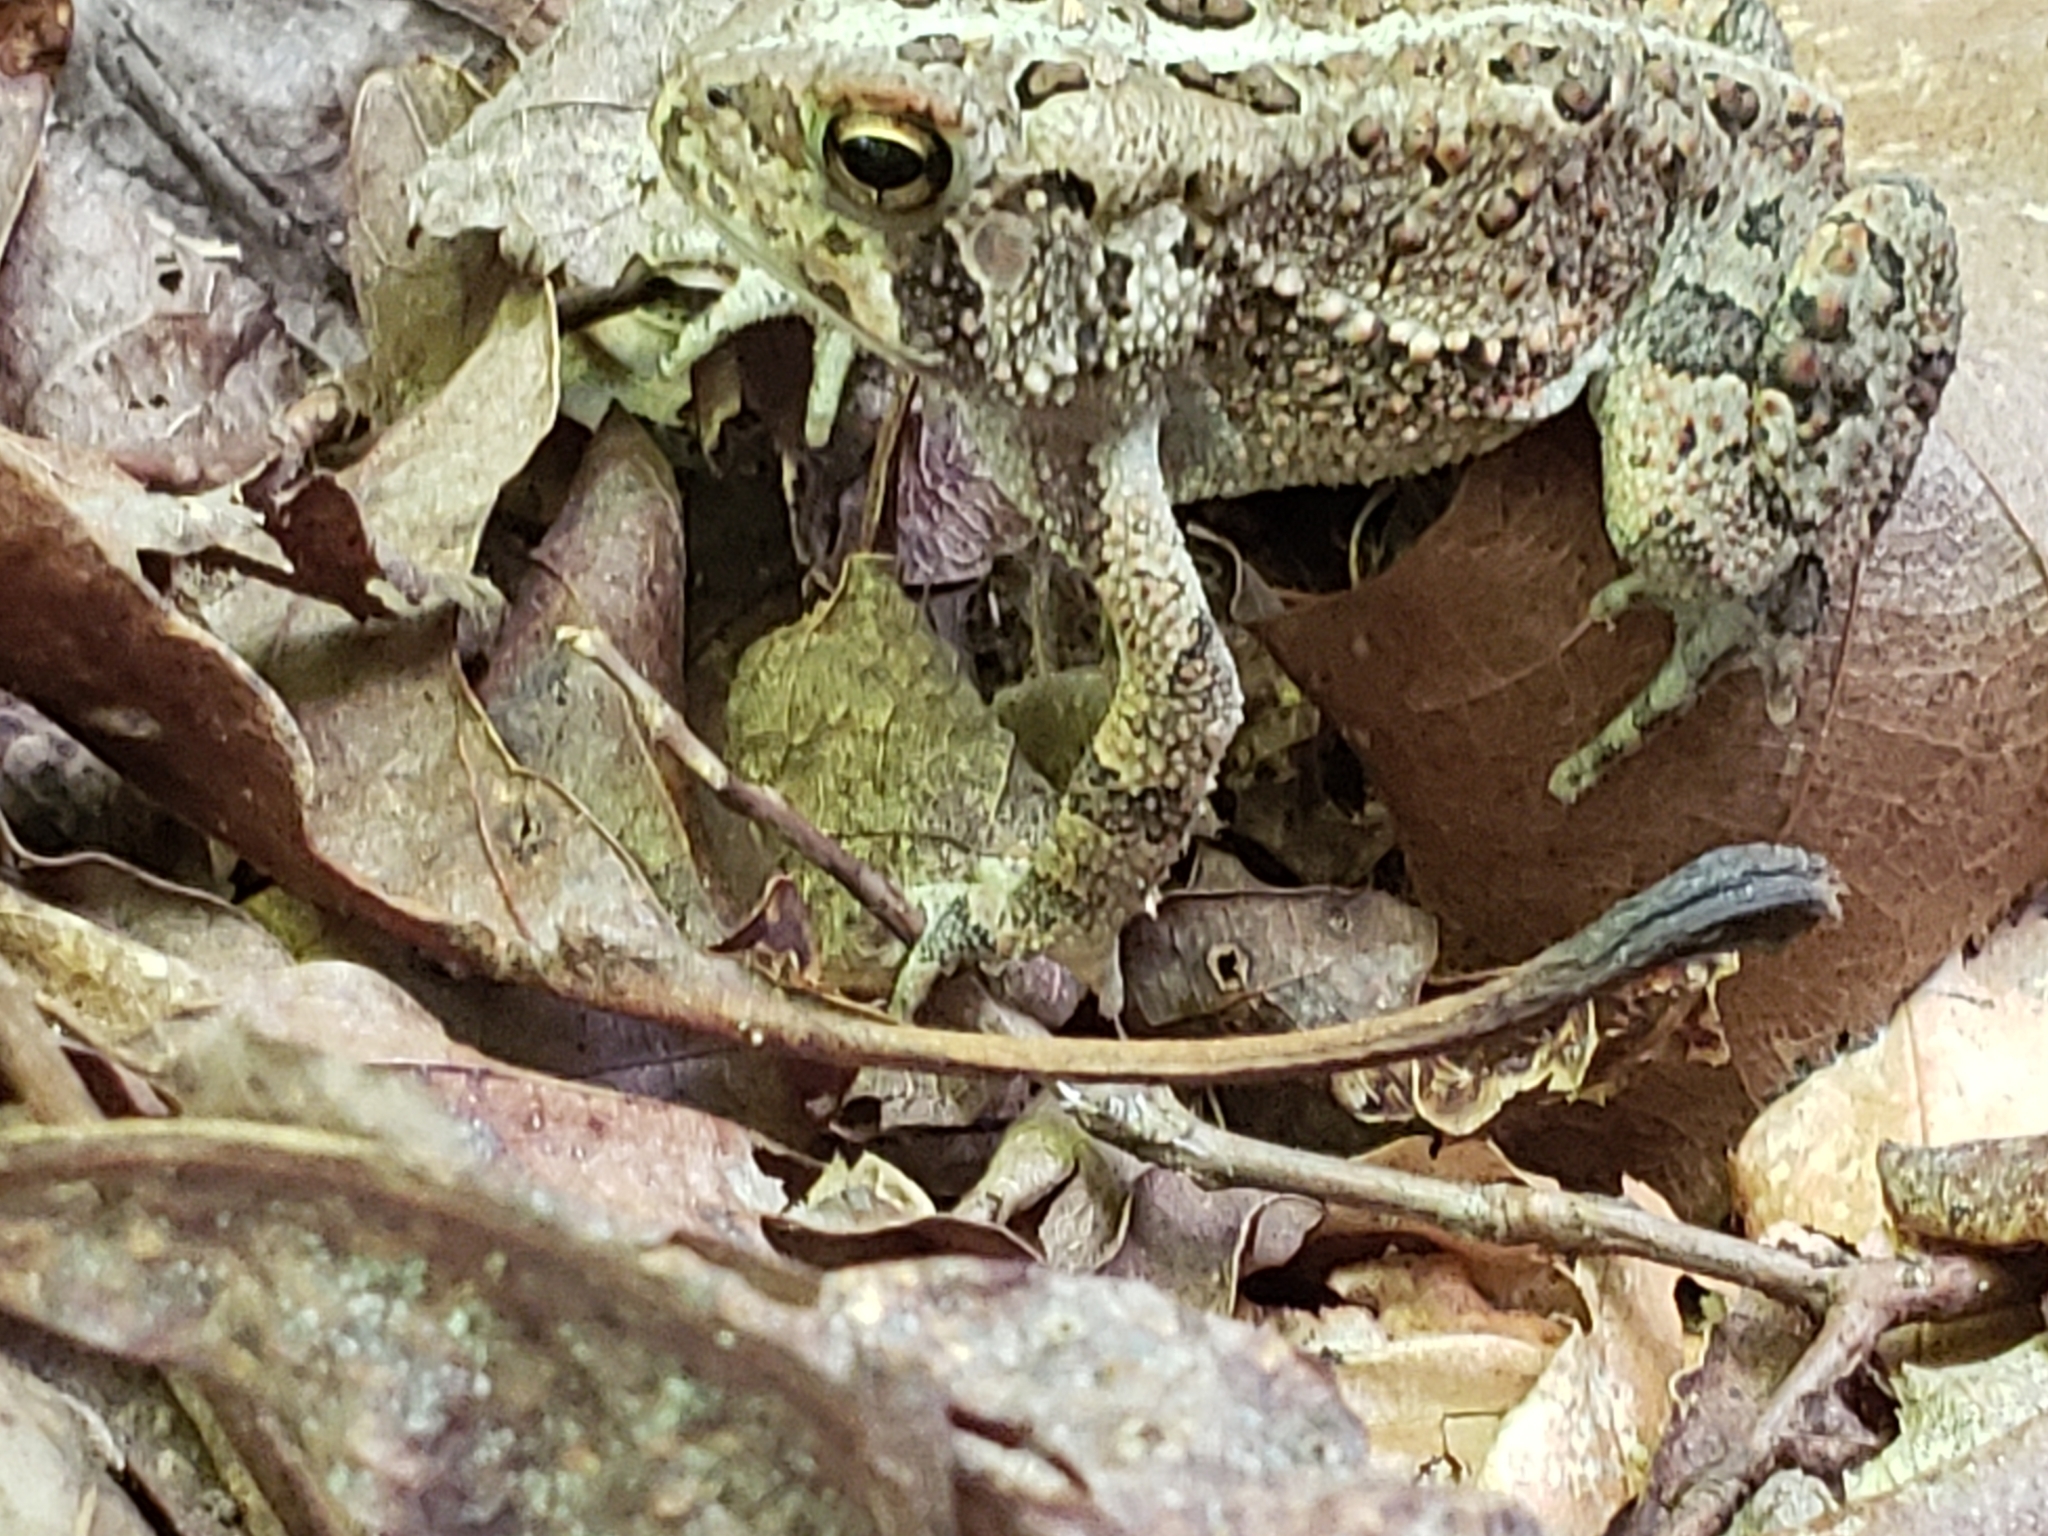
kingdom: Animalia
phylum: Chordata
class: Amphibia
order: Anura
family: Bufonidae
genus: Anaxyrus
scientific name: Anaxyrus americanus
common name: American toad
